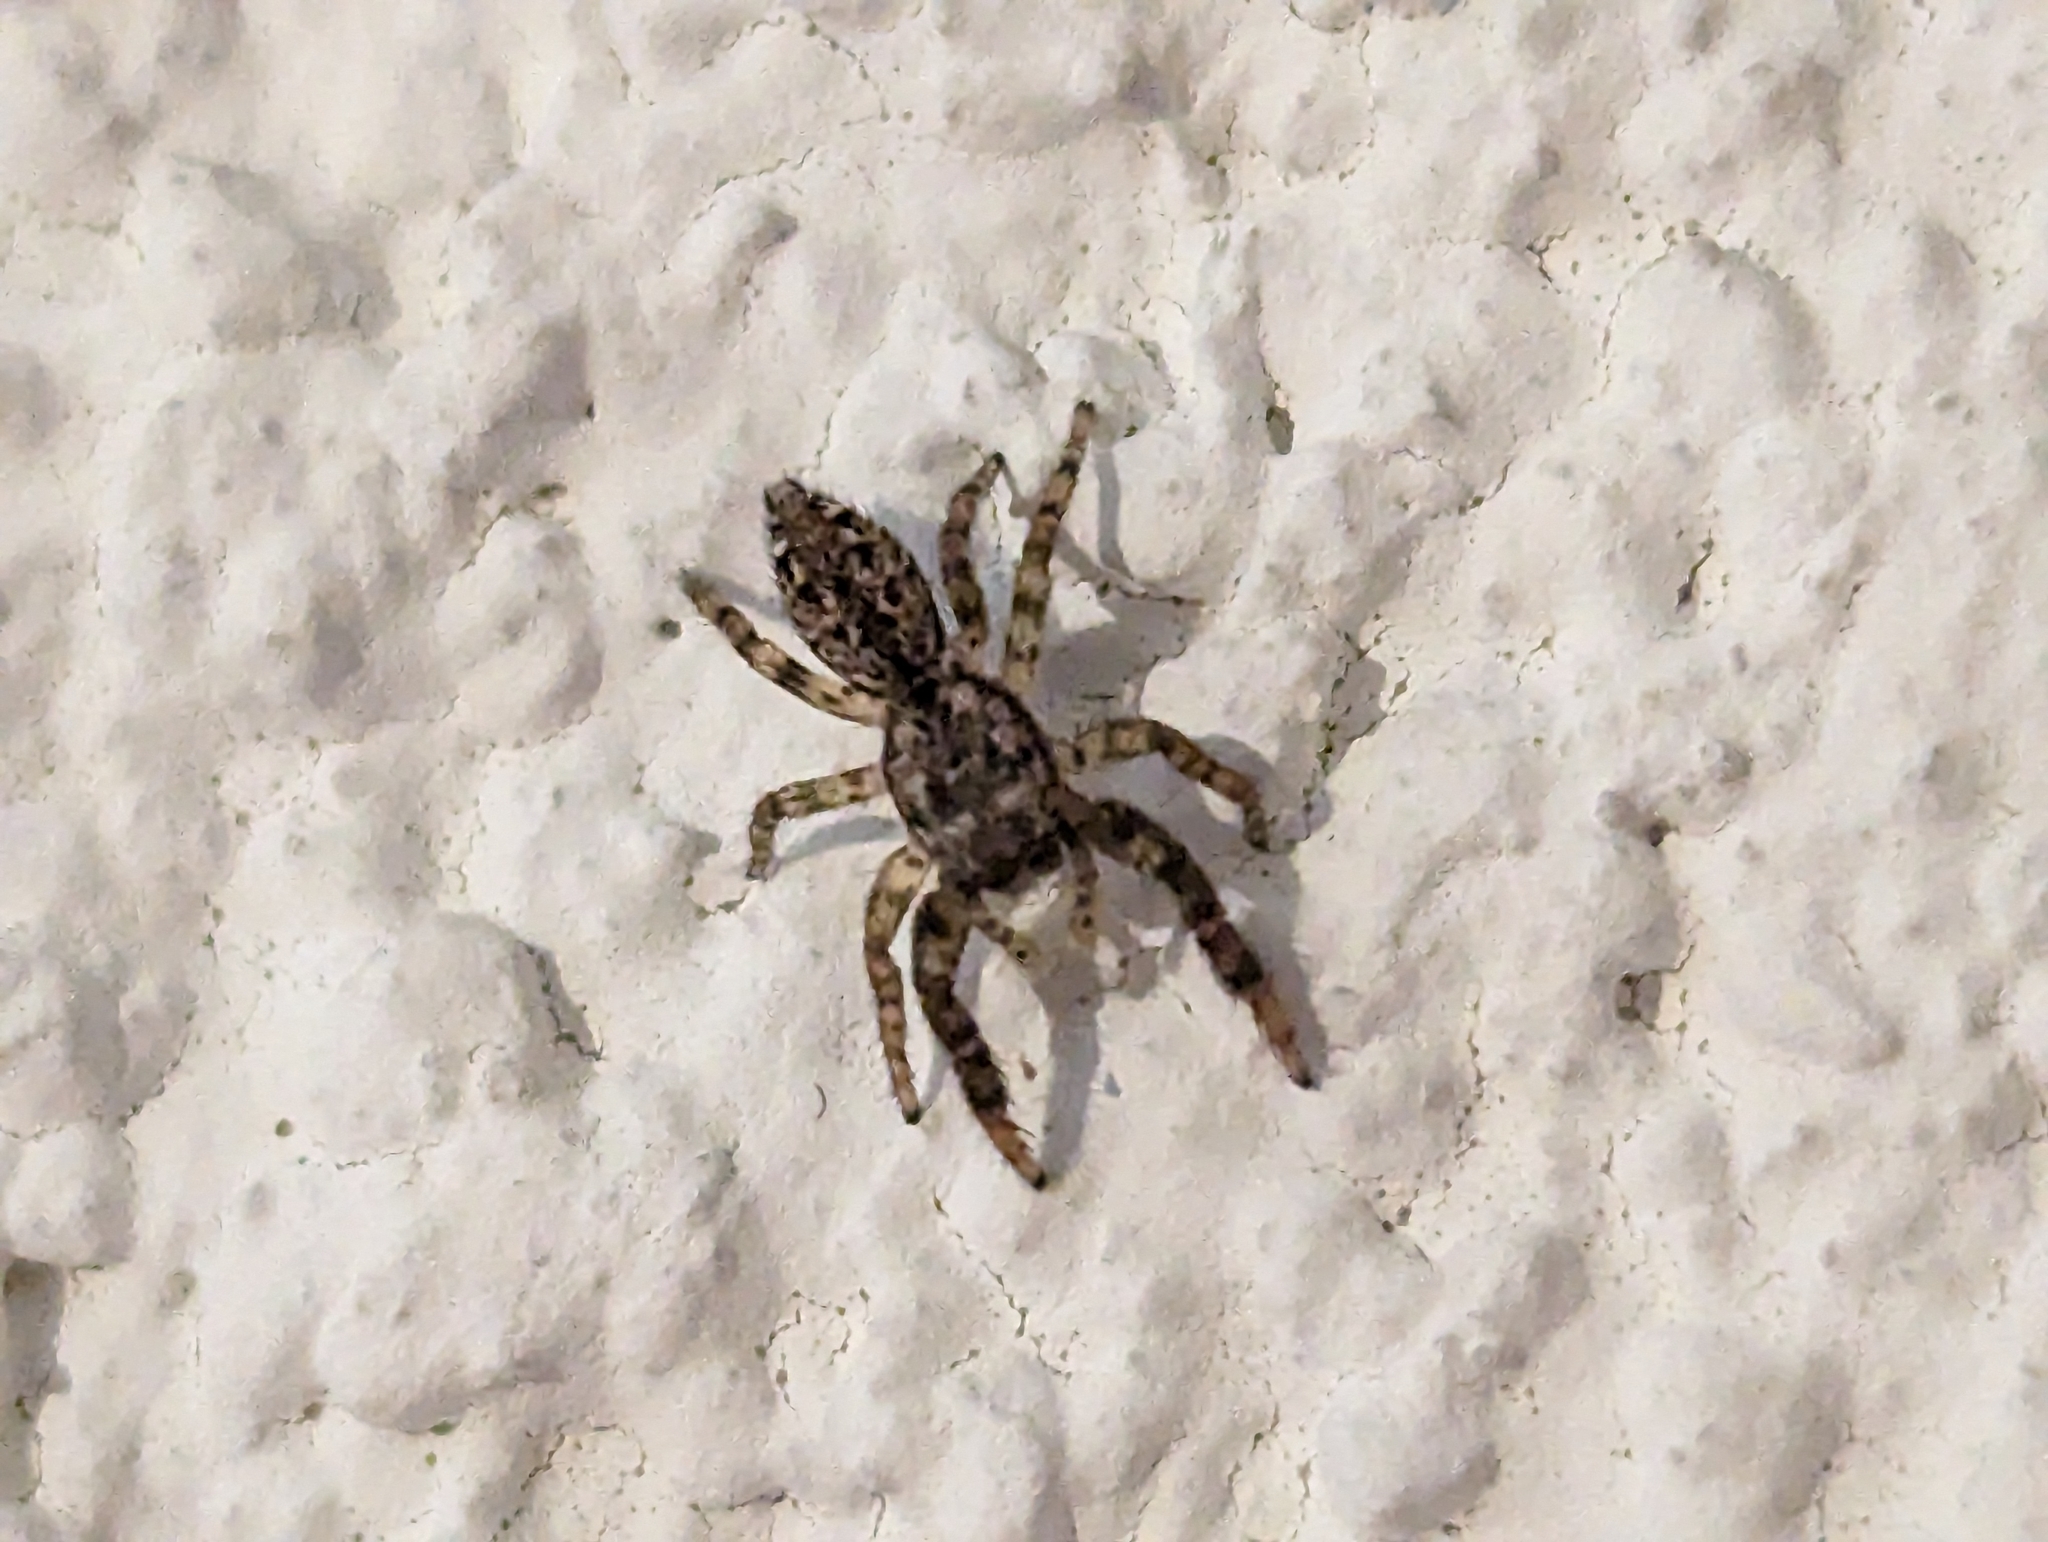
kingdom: Animalia
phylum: Arthropoda
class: Arachnida
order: Araneae
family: Salticidae
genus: Marpissa
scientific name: Marpissa muscosa
